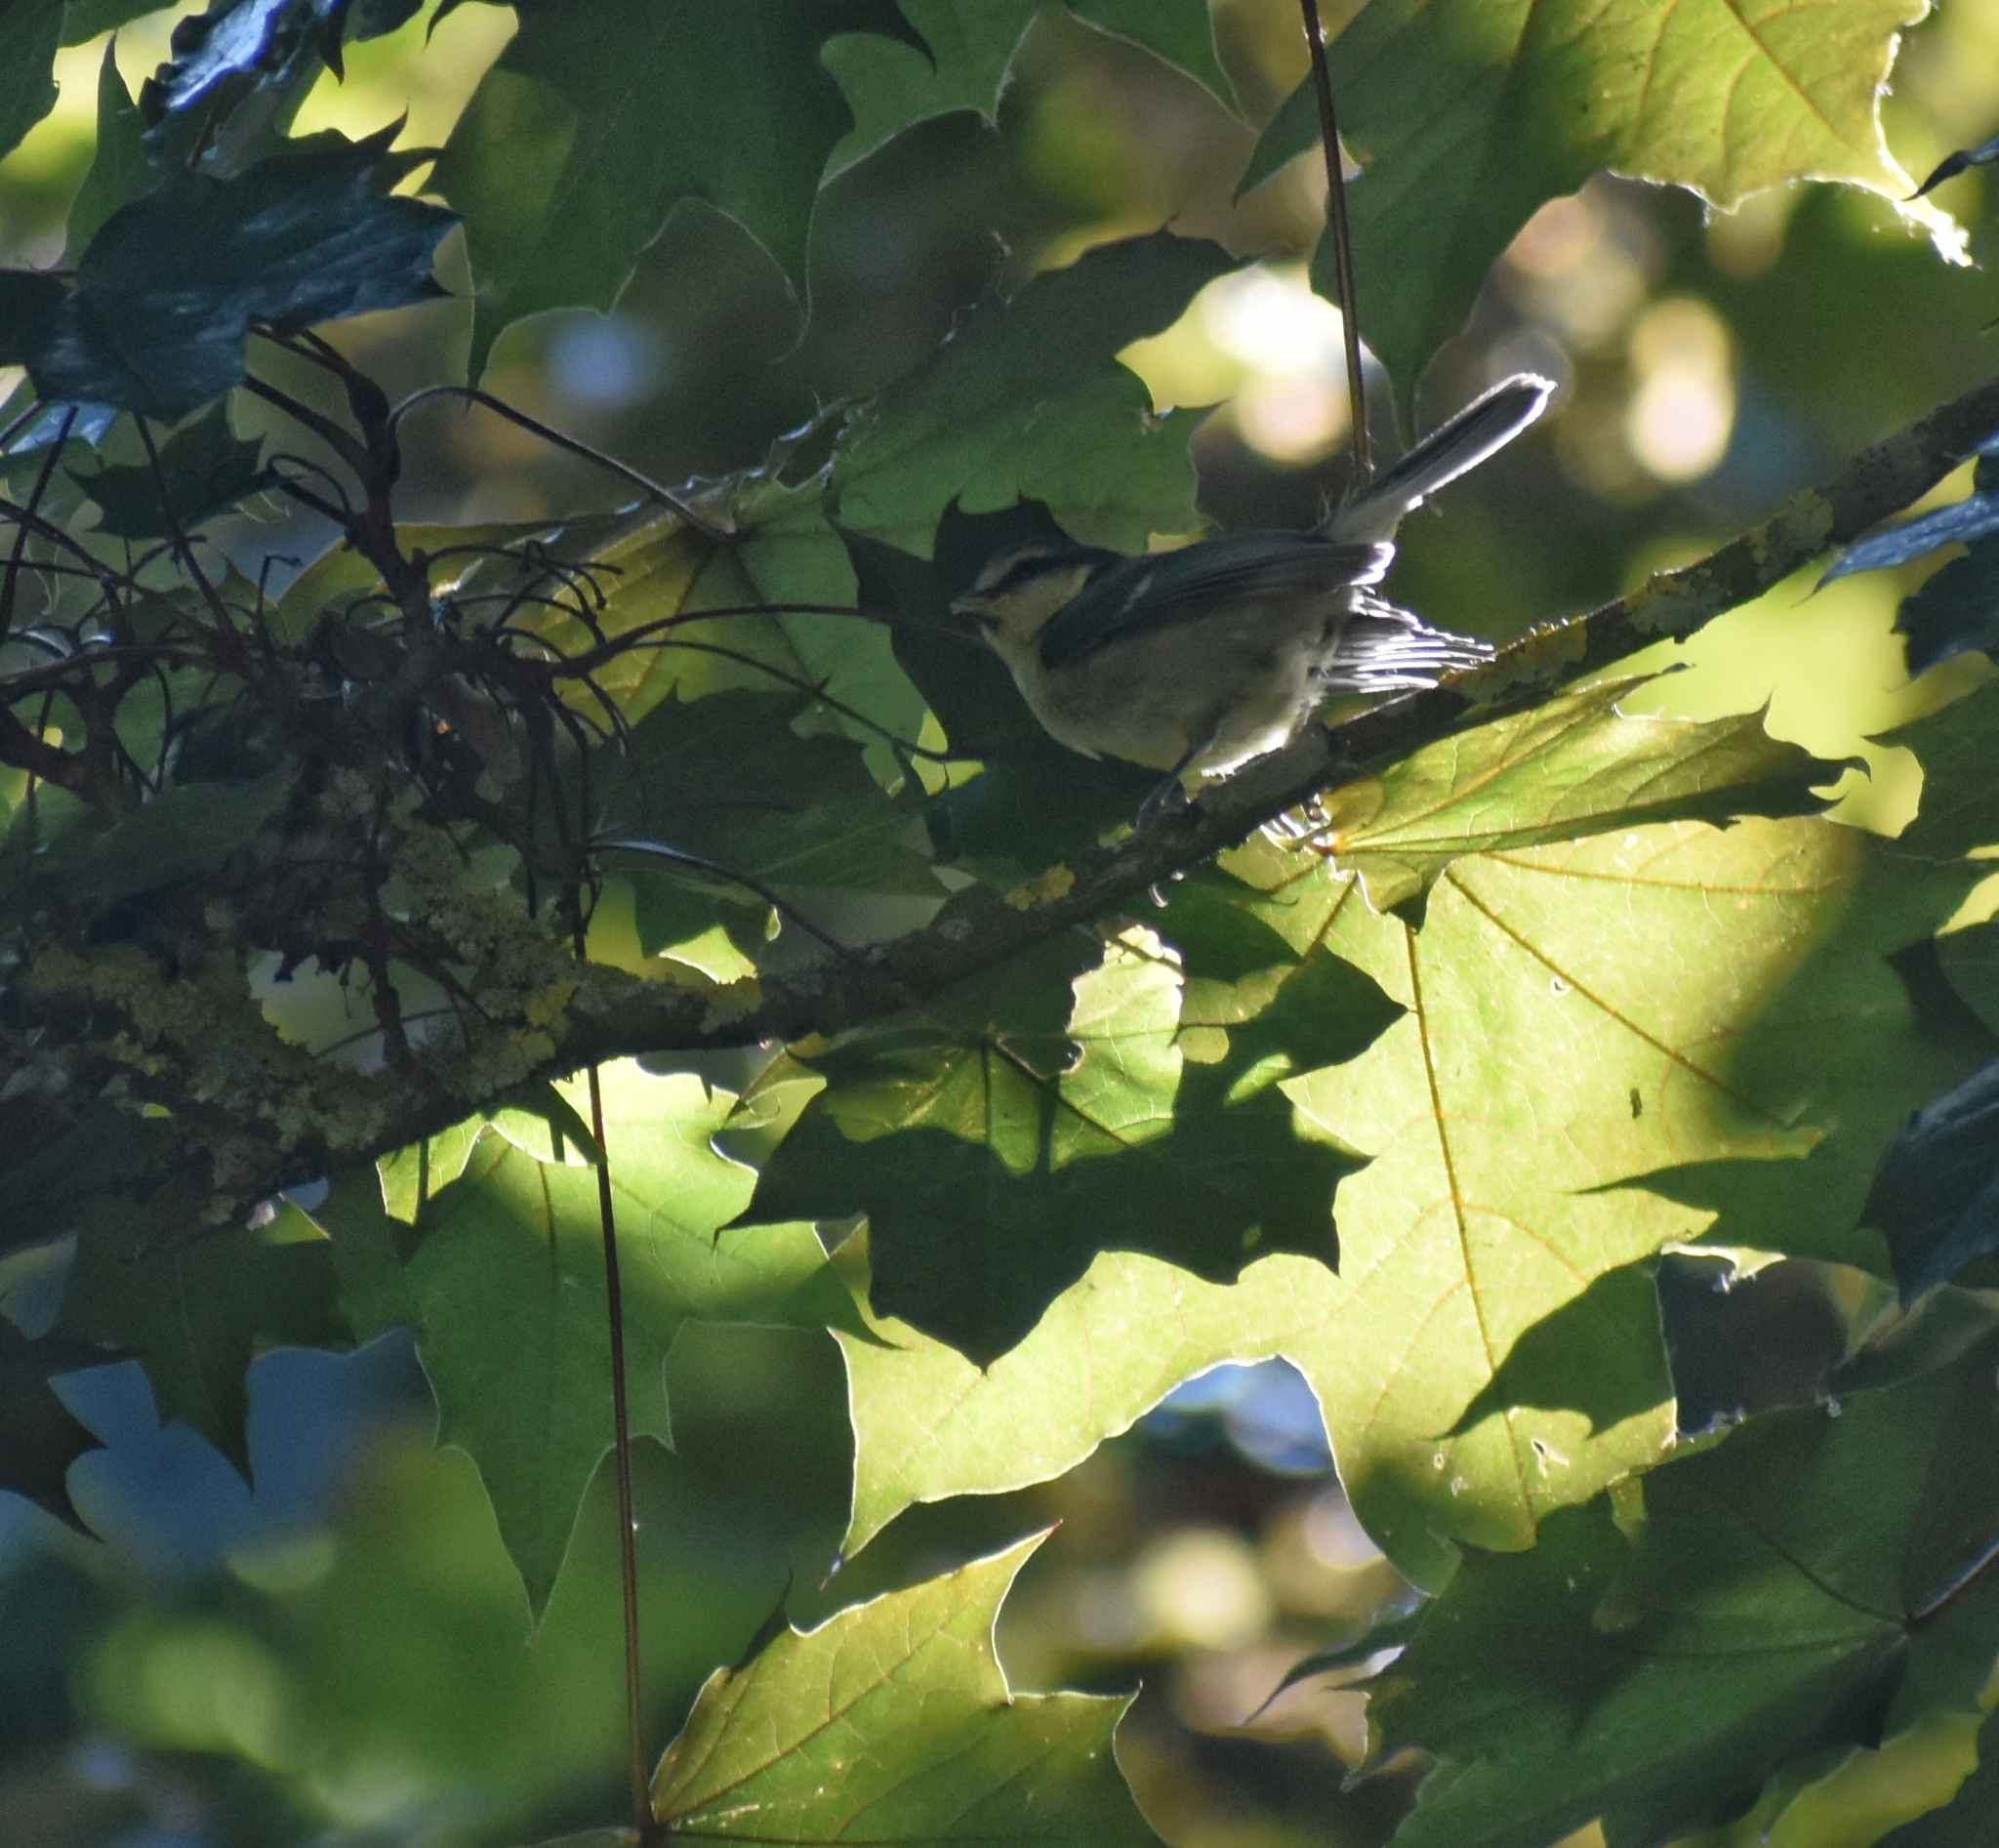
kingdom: Animalia
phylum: Chordata
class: Aves
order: Passeriformes
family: Paridae
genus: Cyanistes
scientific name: Cyanistes caeruleus
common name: Eurasian blue tit
